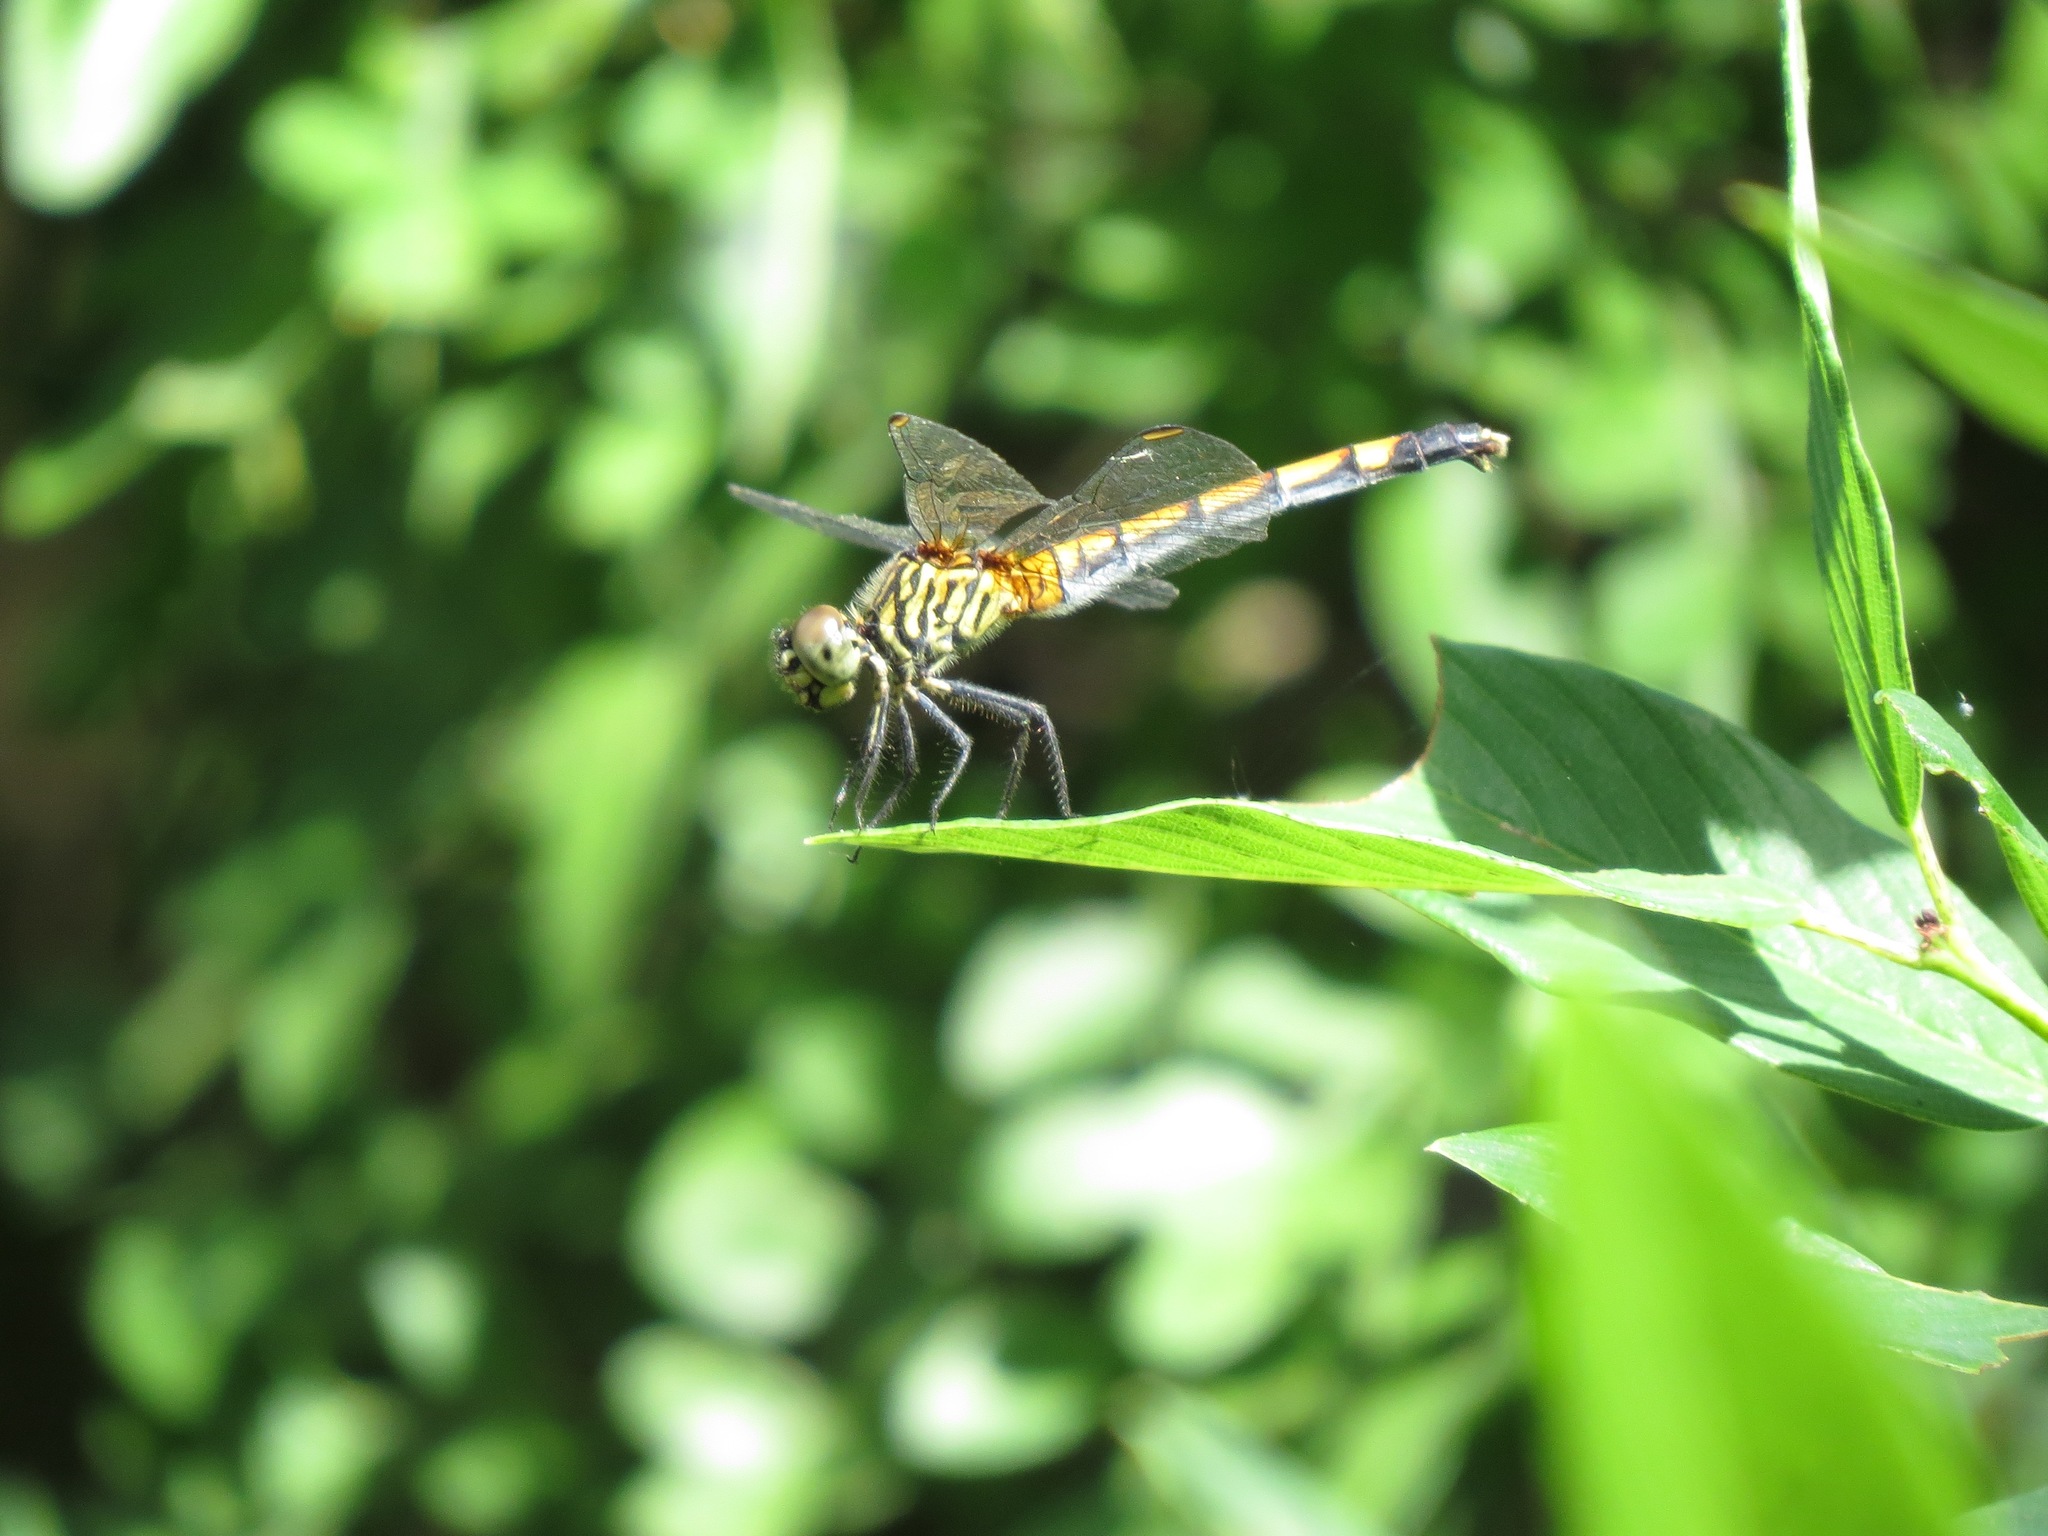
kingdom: Animalia
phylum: Arthropoda
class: Insecta
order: Odonata
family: Libellulidae
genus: Erythrodiplax
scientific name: Erythrodiplax berenice
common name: Seaside dragonlet
